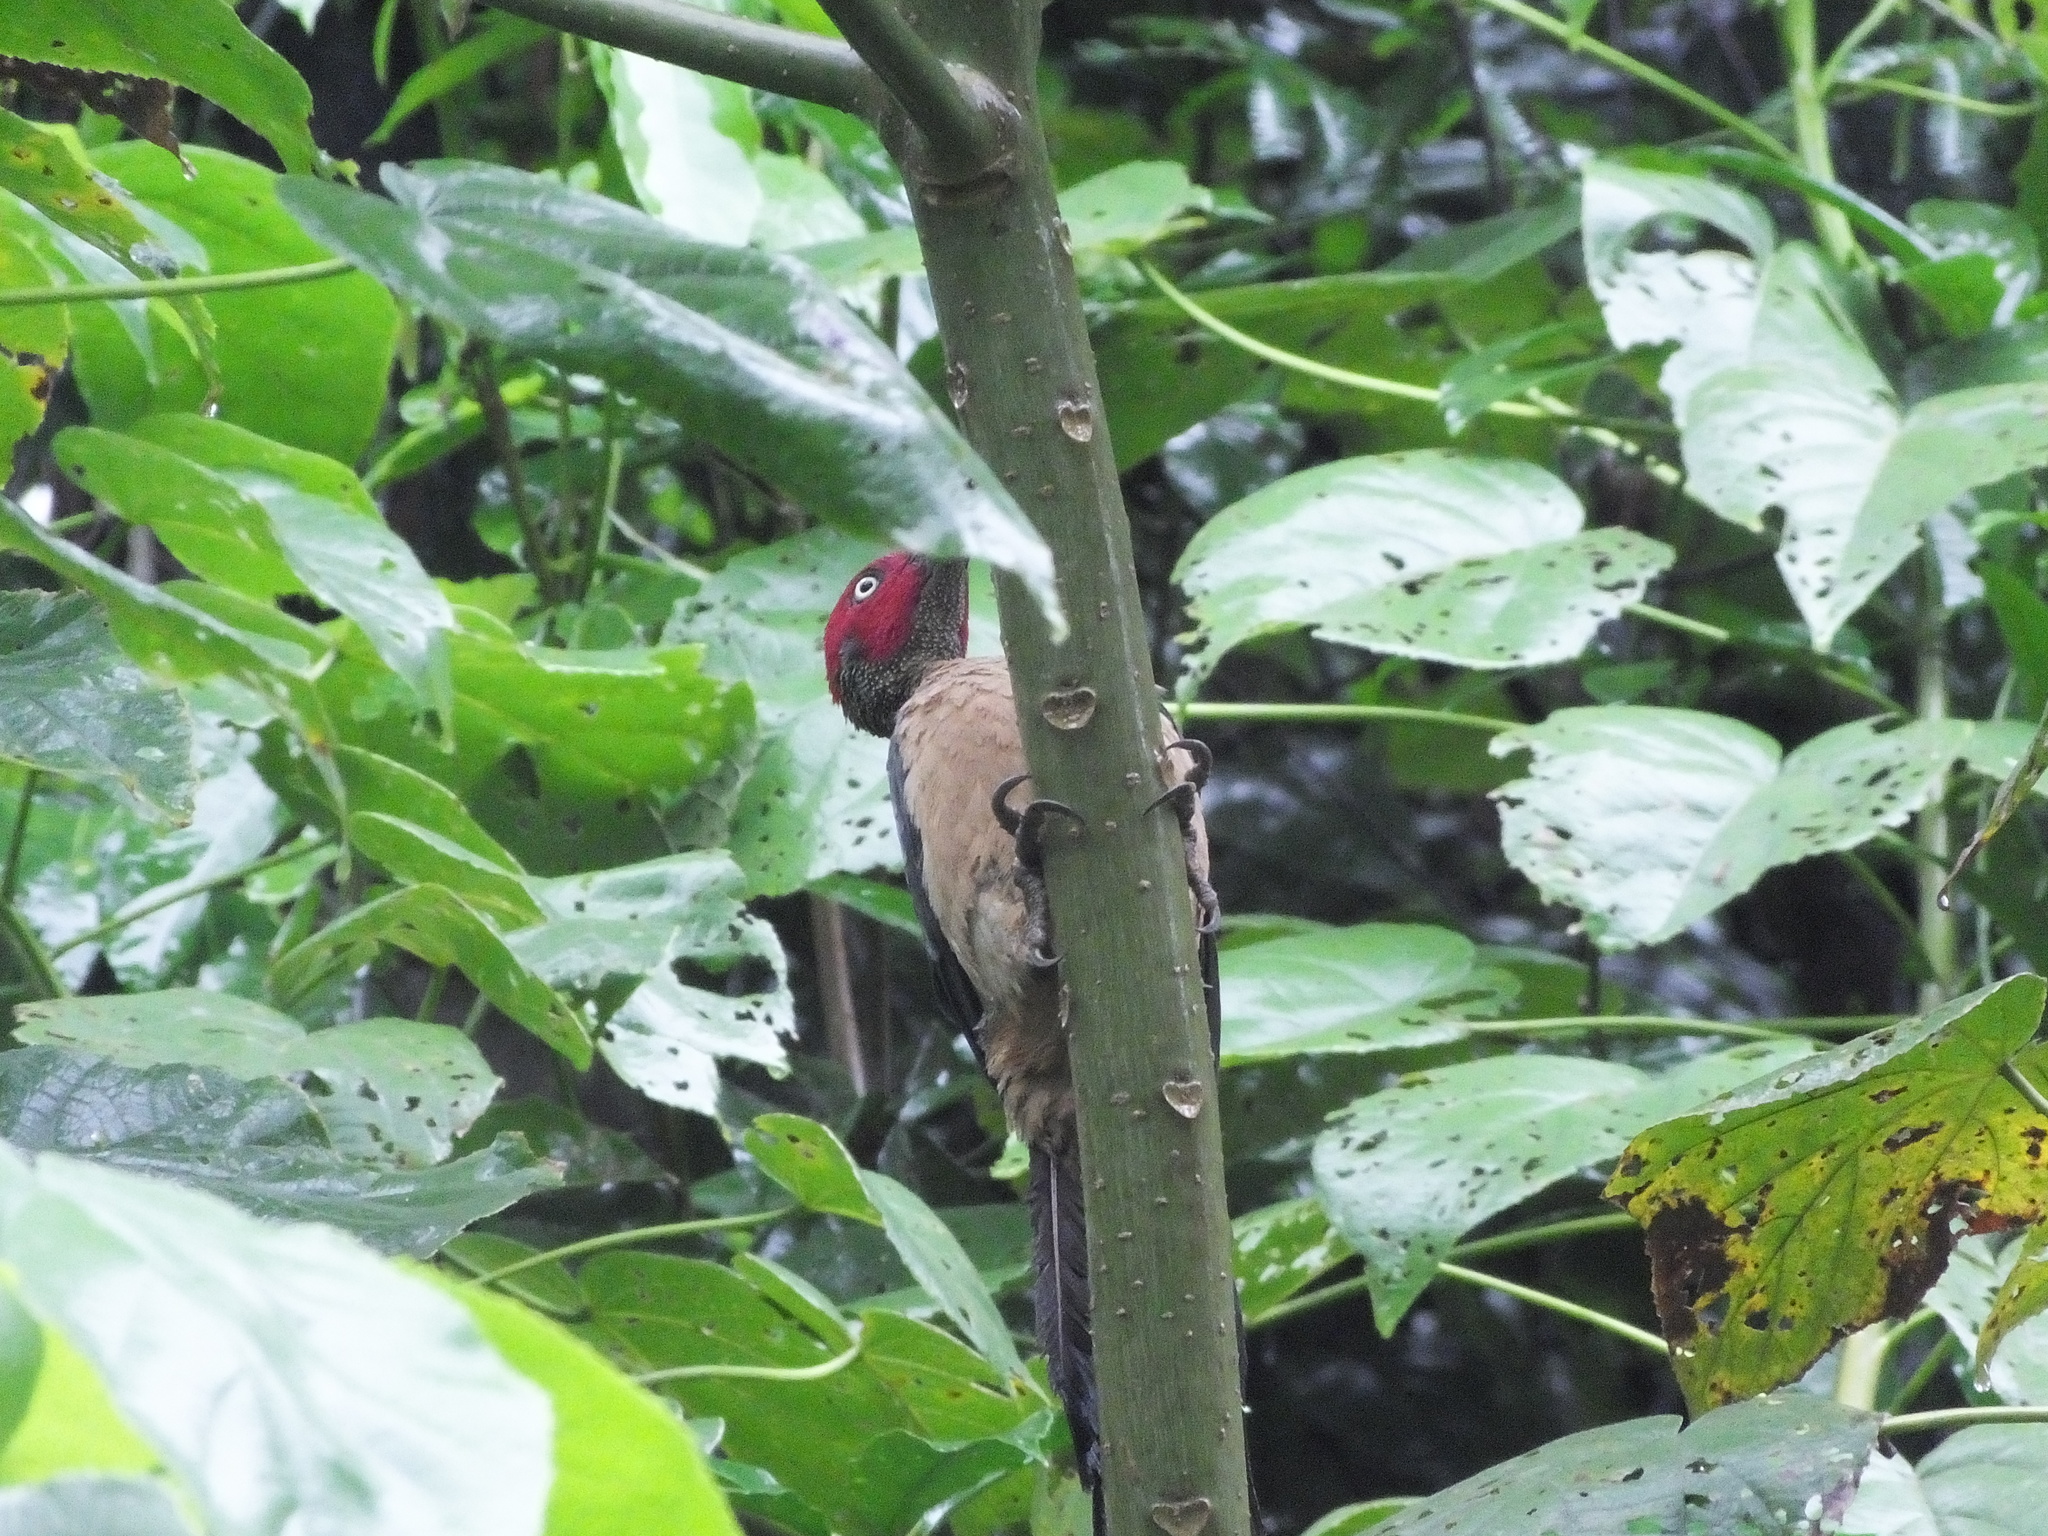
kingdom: Animalia
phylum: Chordata
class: Aves
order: Piciformes
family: Picidae
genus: Mulleripicus
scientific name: Mulleripicus fulvus
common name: Ashy woodpecker
